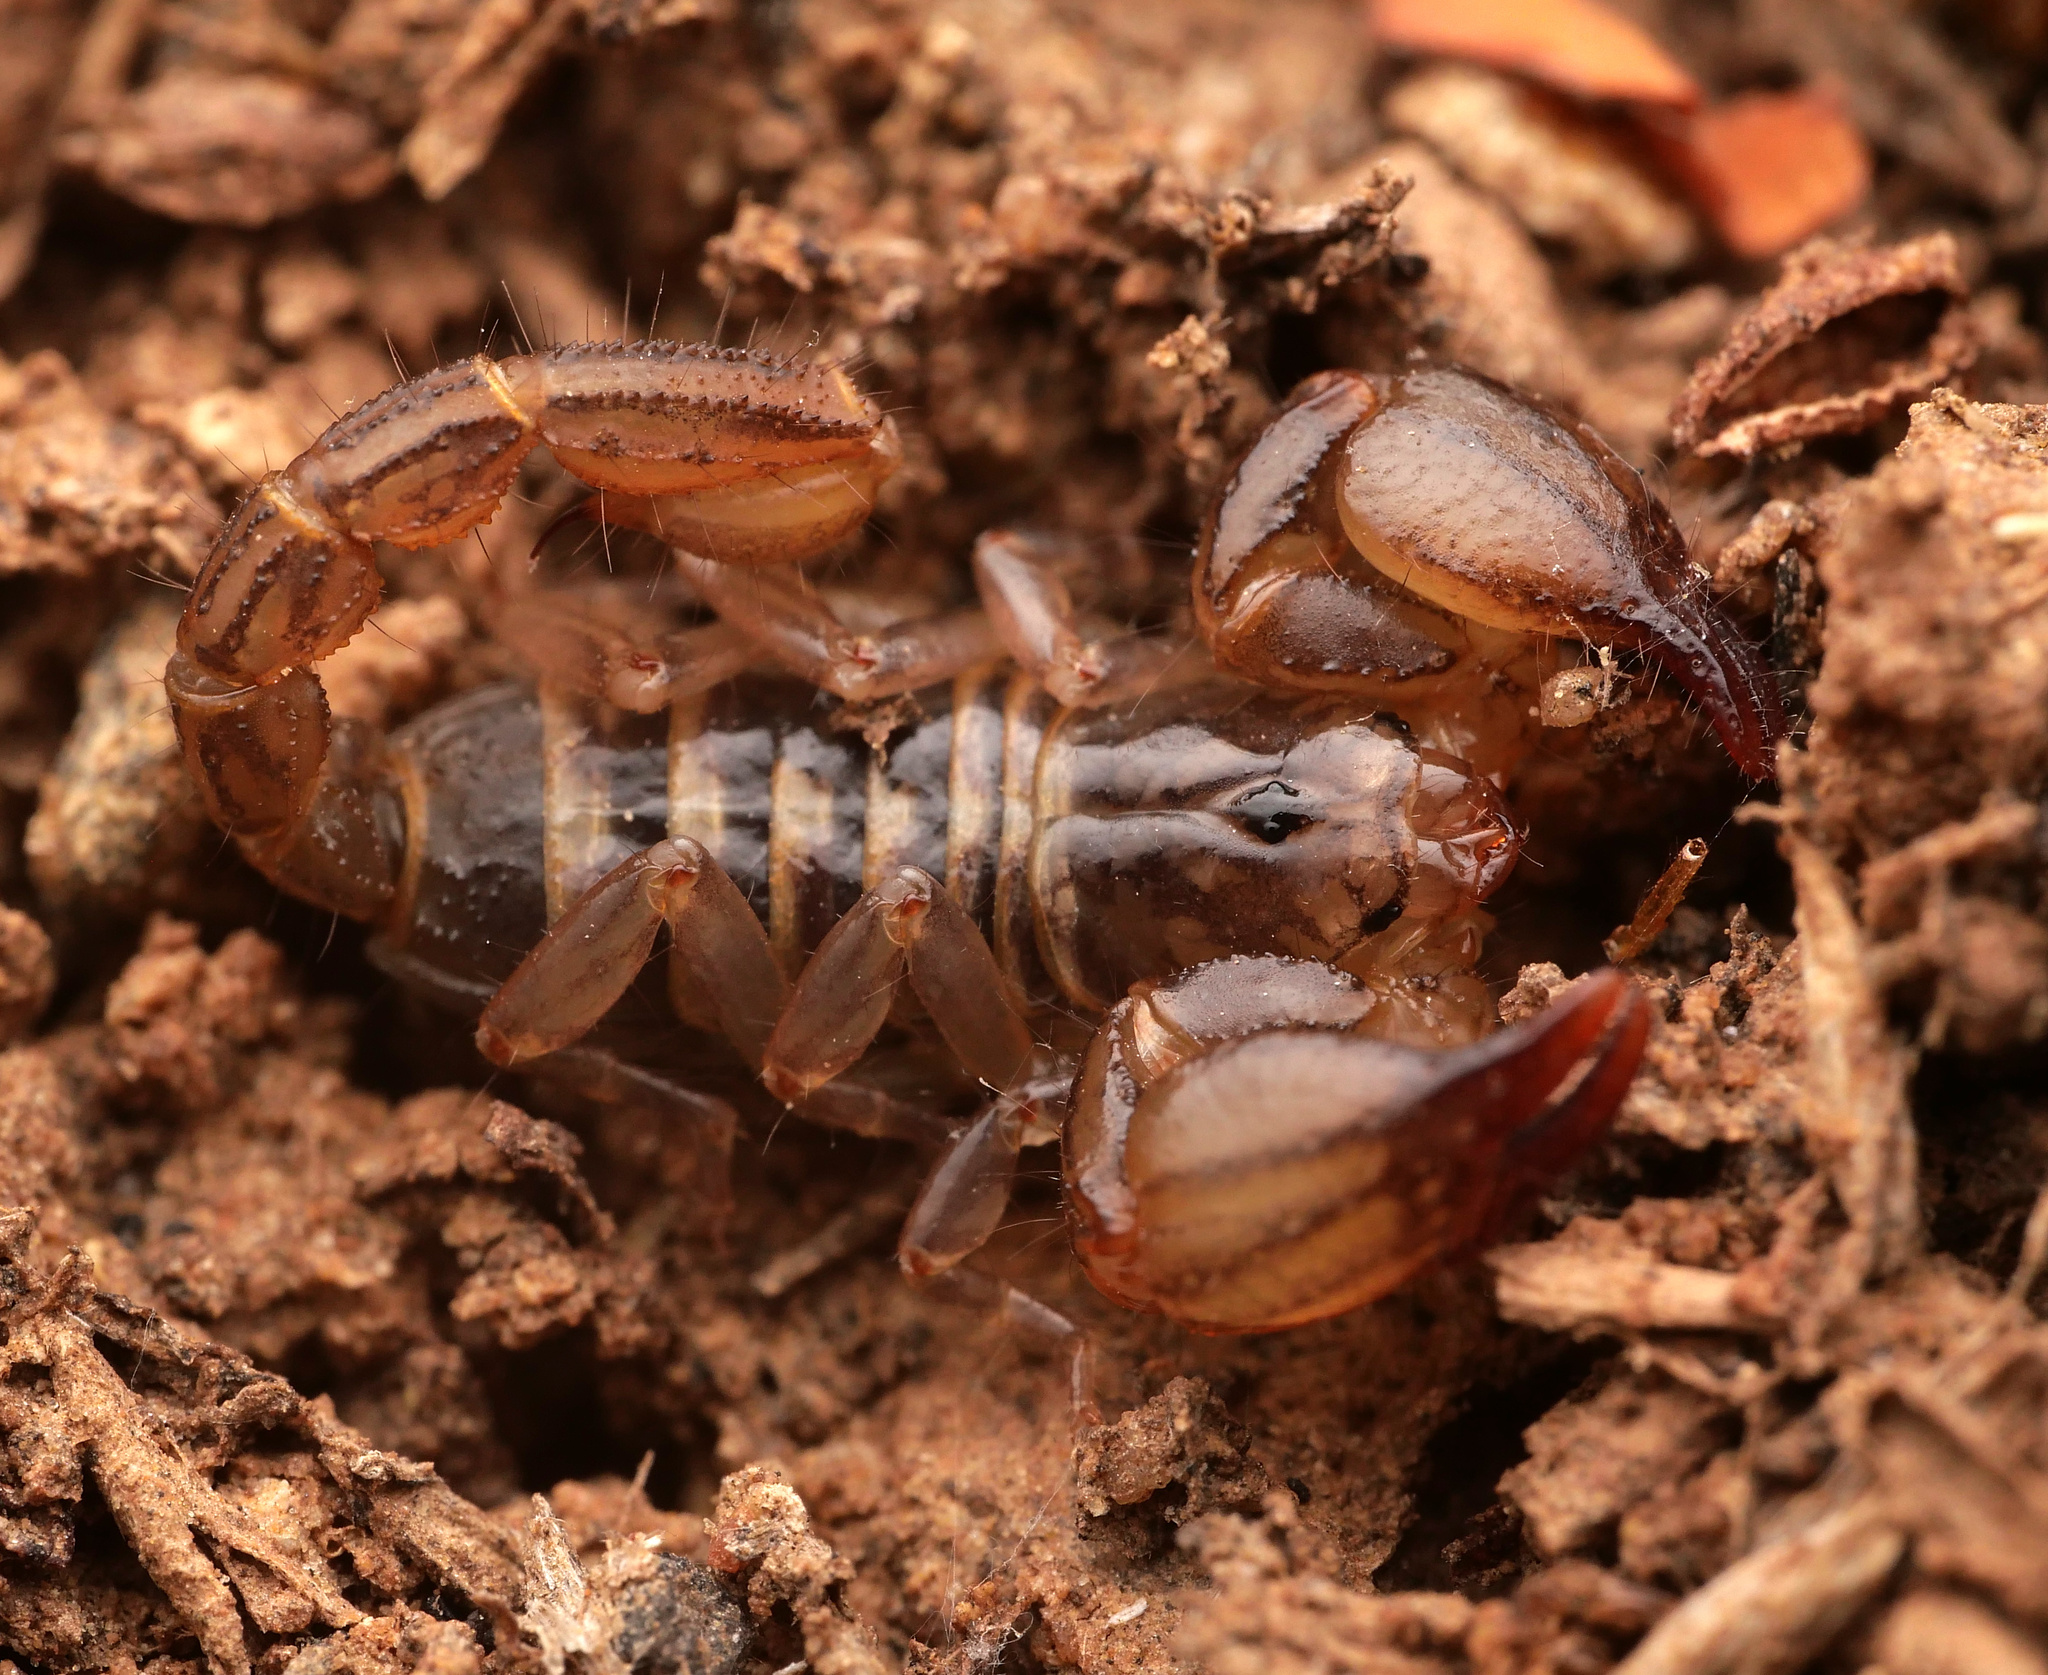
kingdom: Animalia
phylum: Arthropoda
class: Arachnida
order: Scorpiones
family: Chactidae
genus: Nullibrotheas
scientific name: Nullibrotheas allenii
